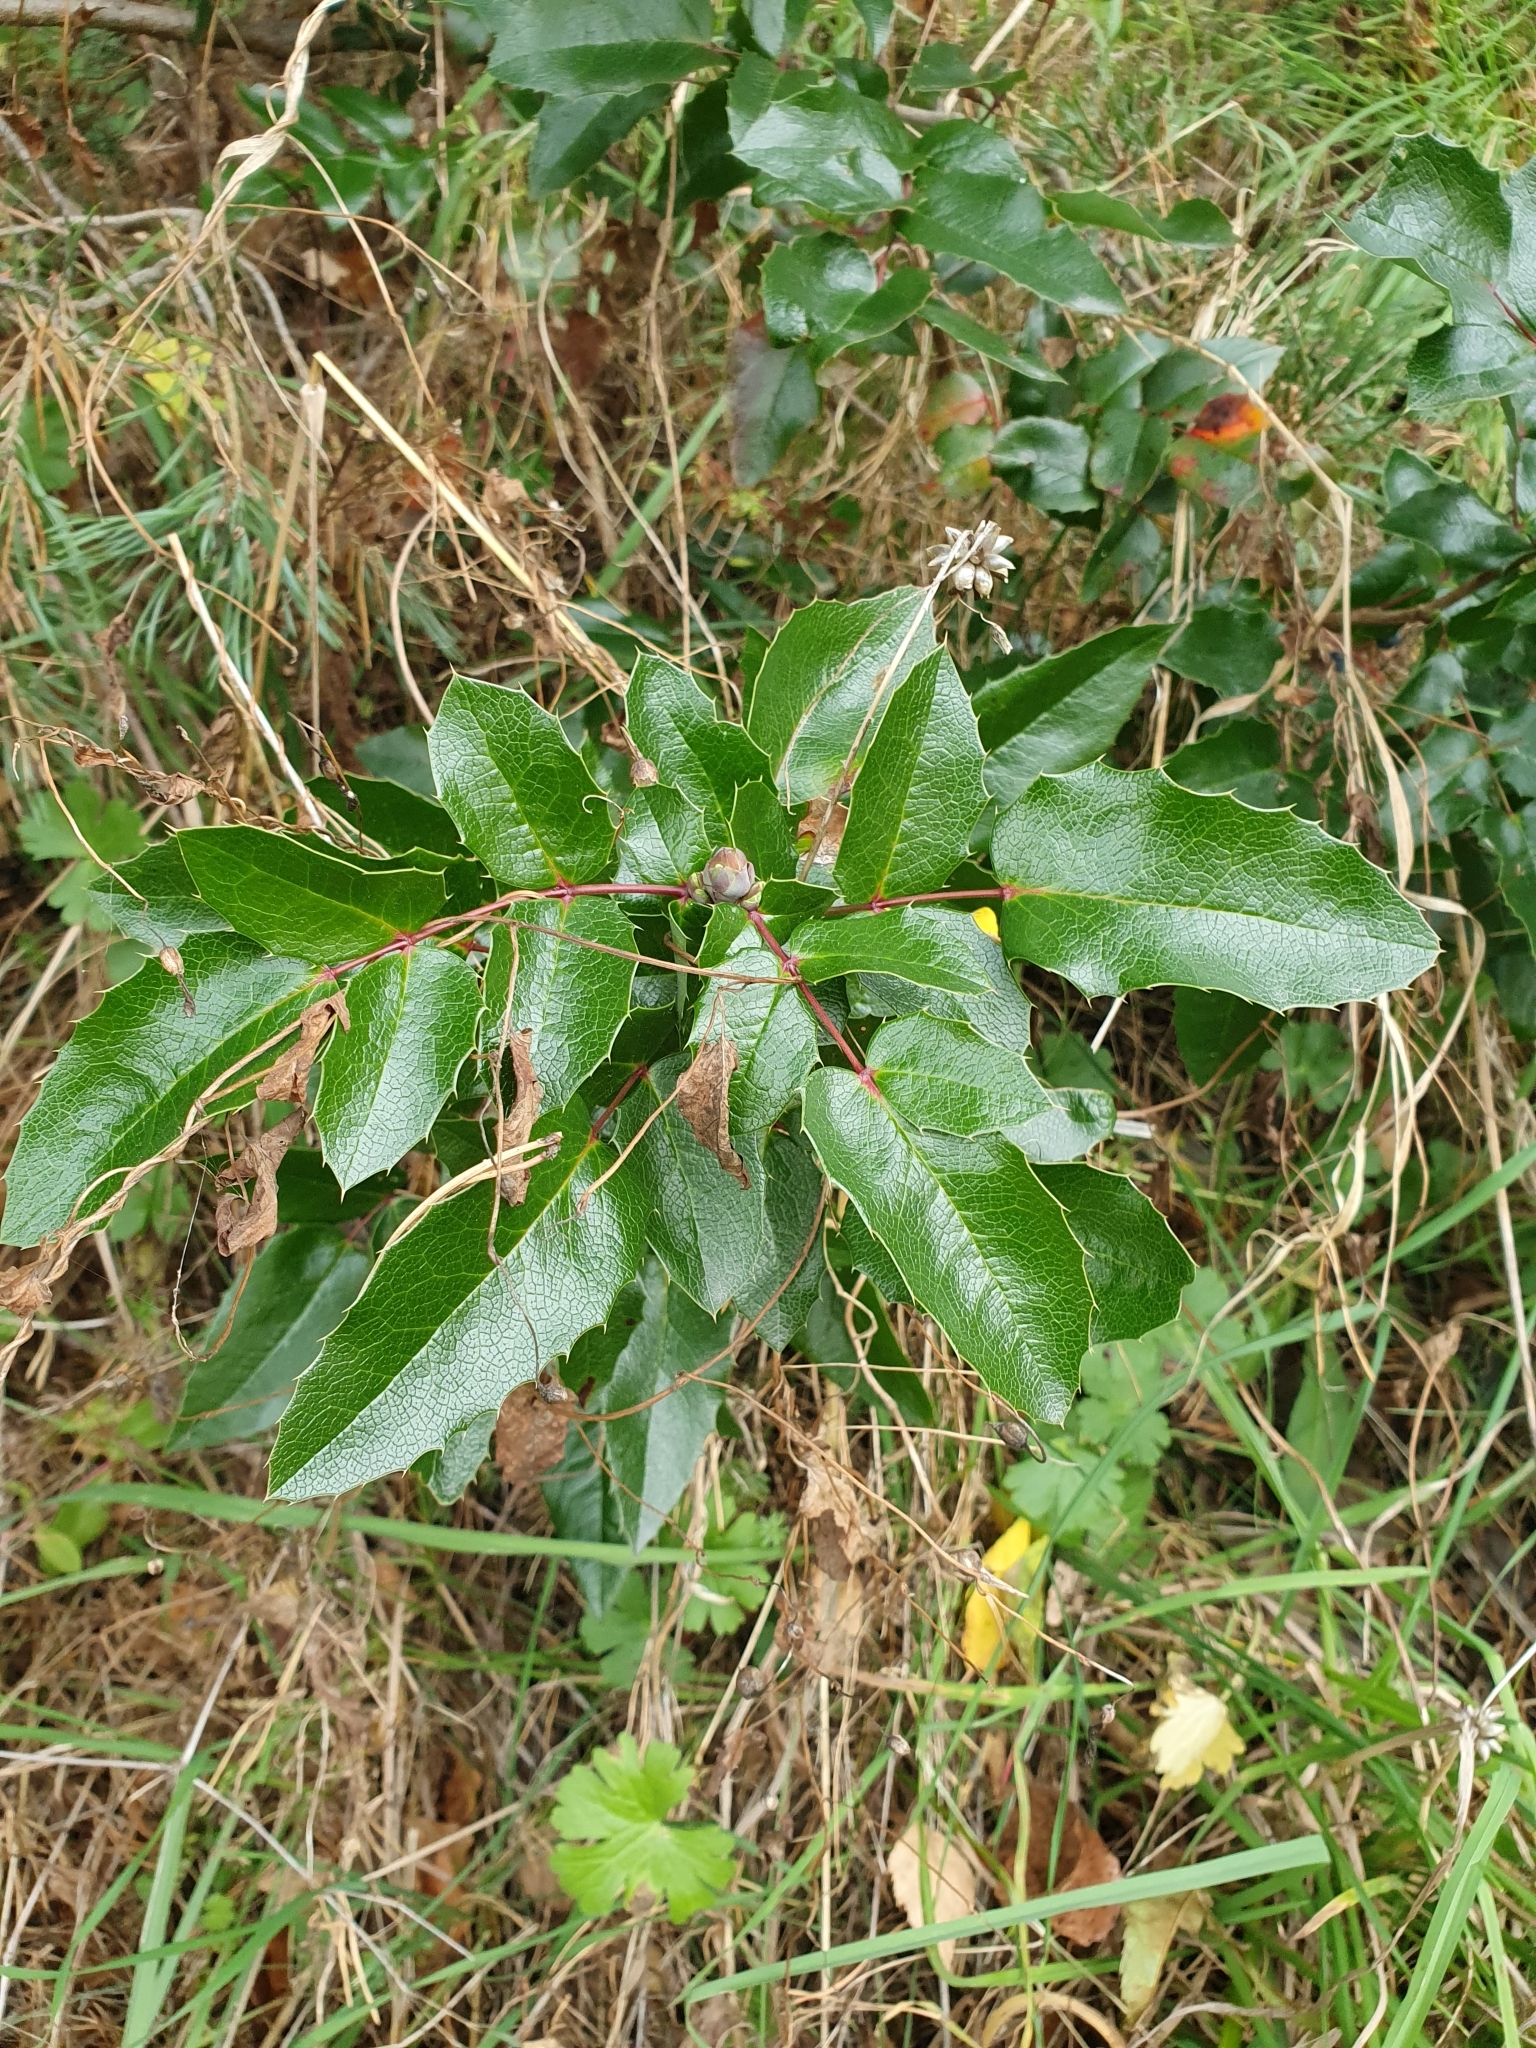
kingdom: Plantae
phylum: Tracheophyta
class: Magnoliopsida
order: Ranunculales
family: Berberidaceae
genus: Mahonia
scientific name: Mahonia aquifolium
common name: Oregon-grape
